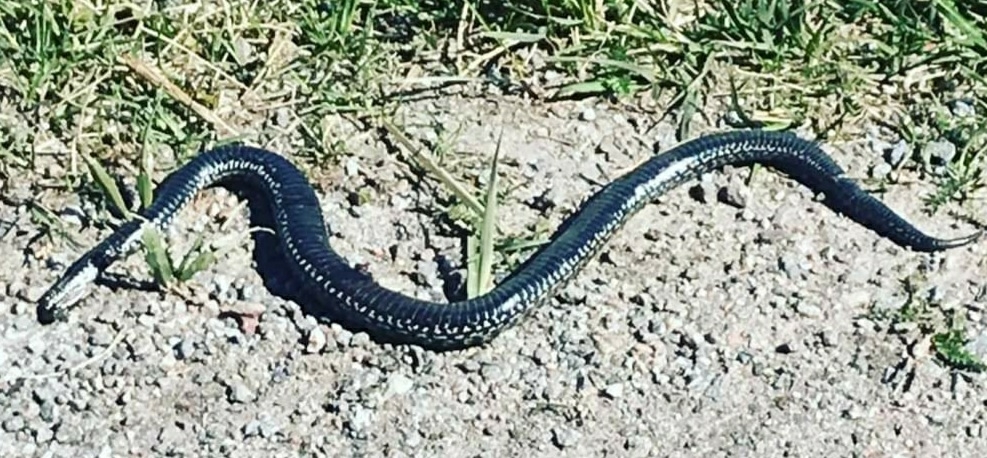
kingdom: Animalia
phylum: Chordata
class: Squamata
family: Viperidae
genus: Vipera
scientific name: Vipera berus
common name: Adder
